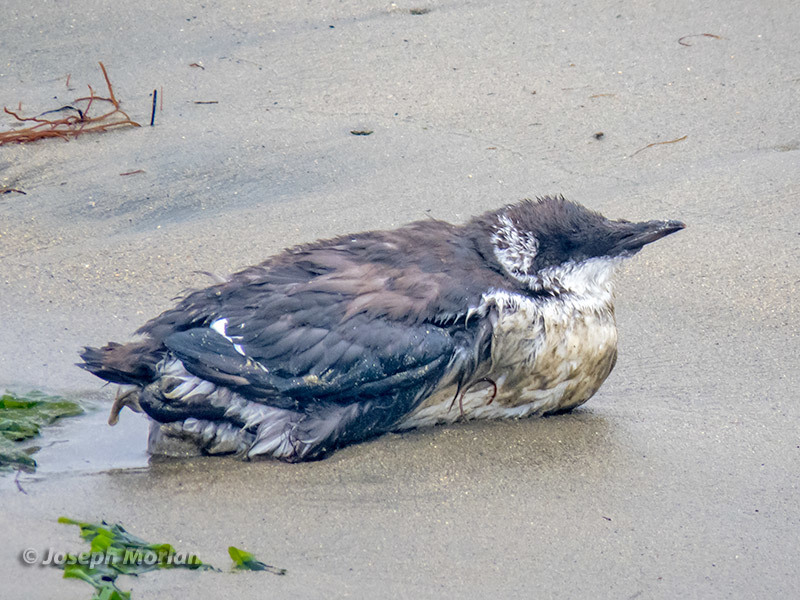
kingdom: Animalia
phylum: Chordata
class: Aves
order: Charadriiformes
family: Alcidae
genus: Uria
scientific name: Uria aalge
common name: Common murre
